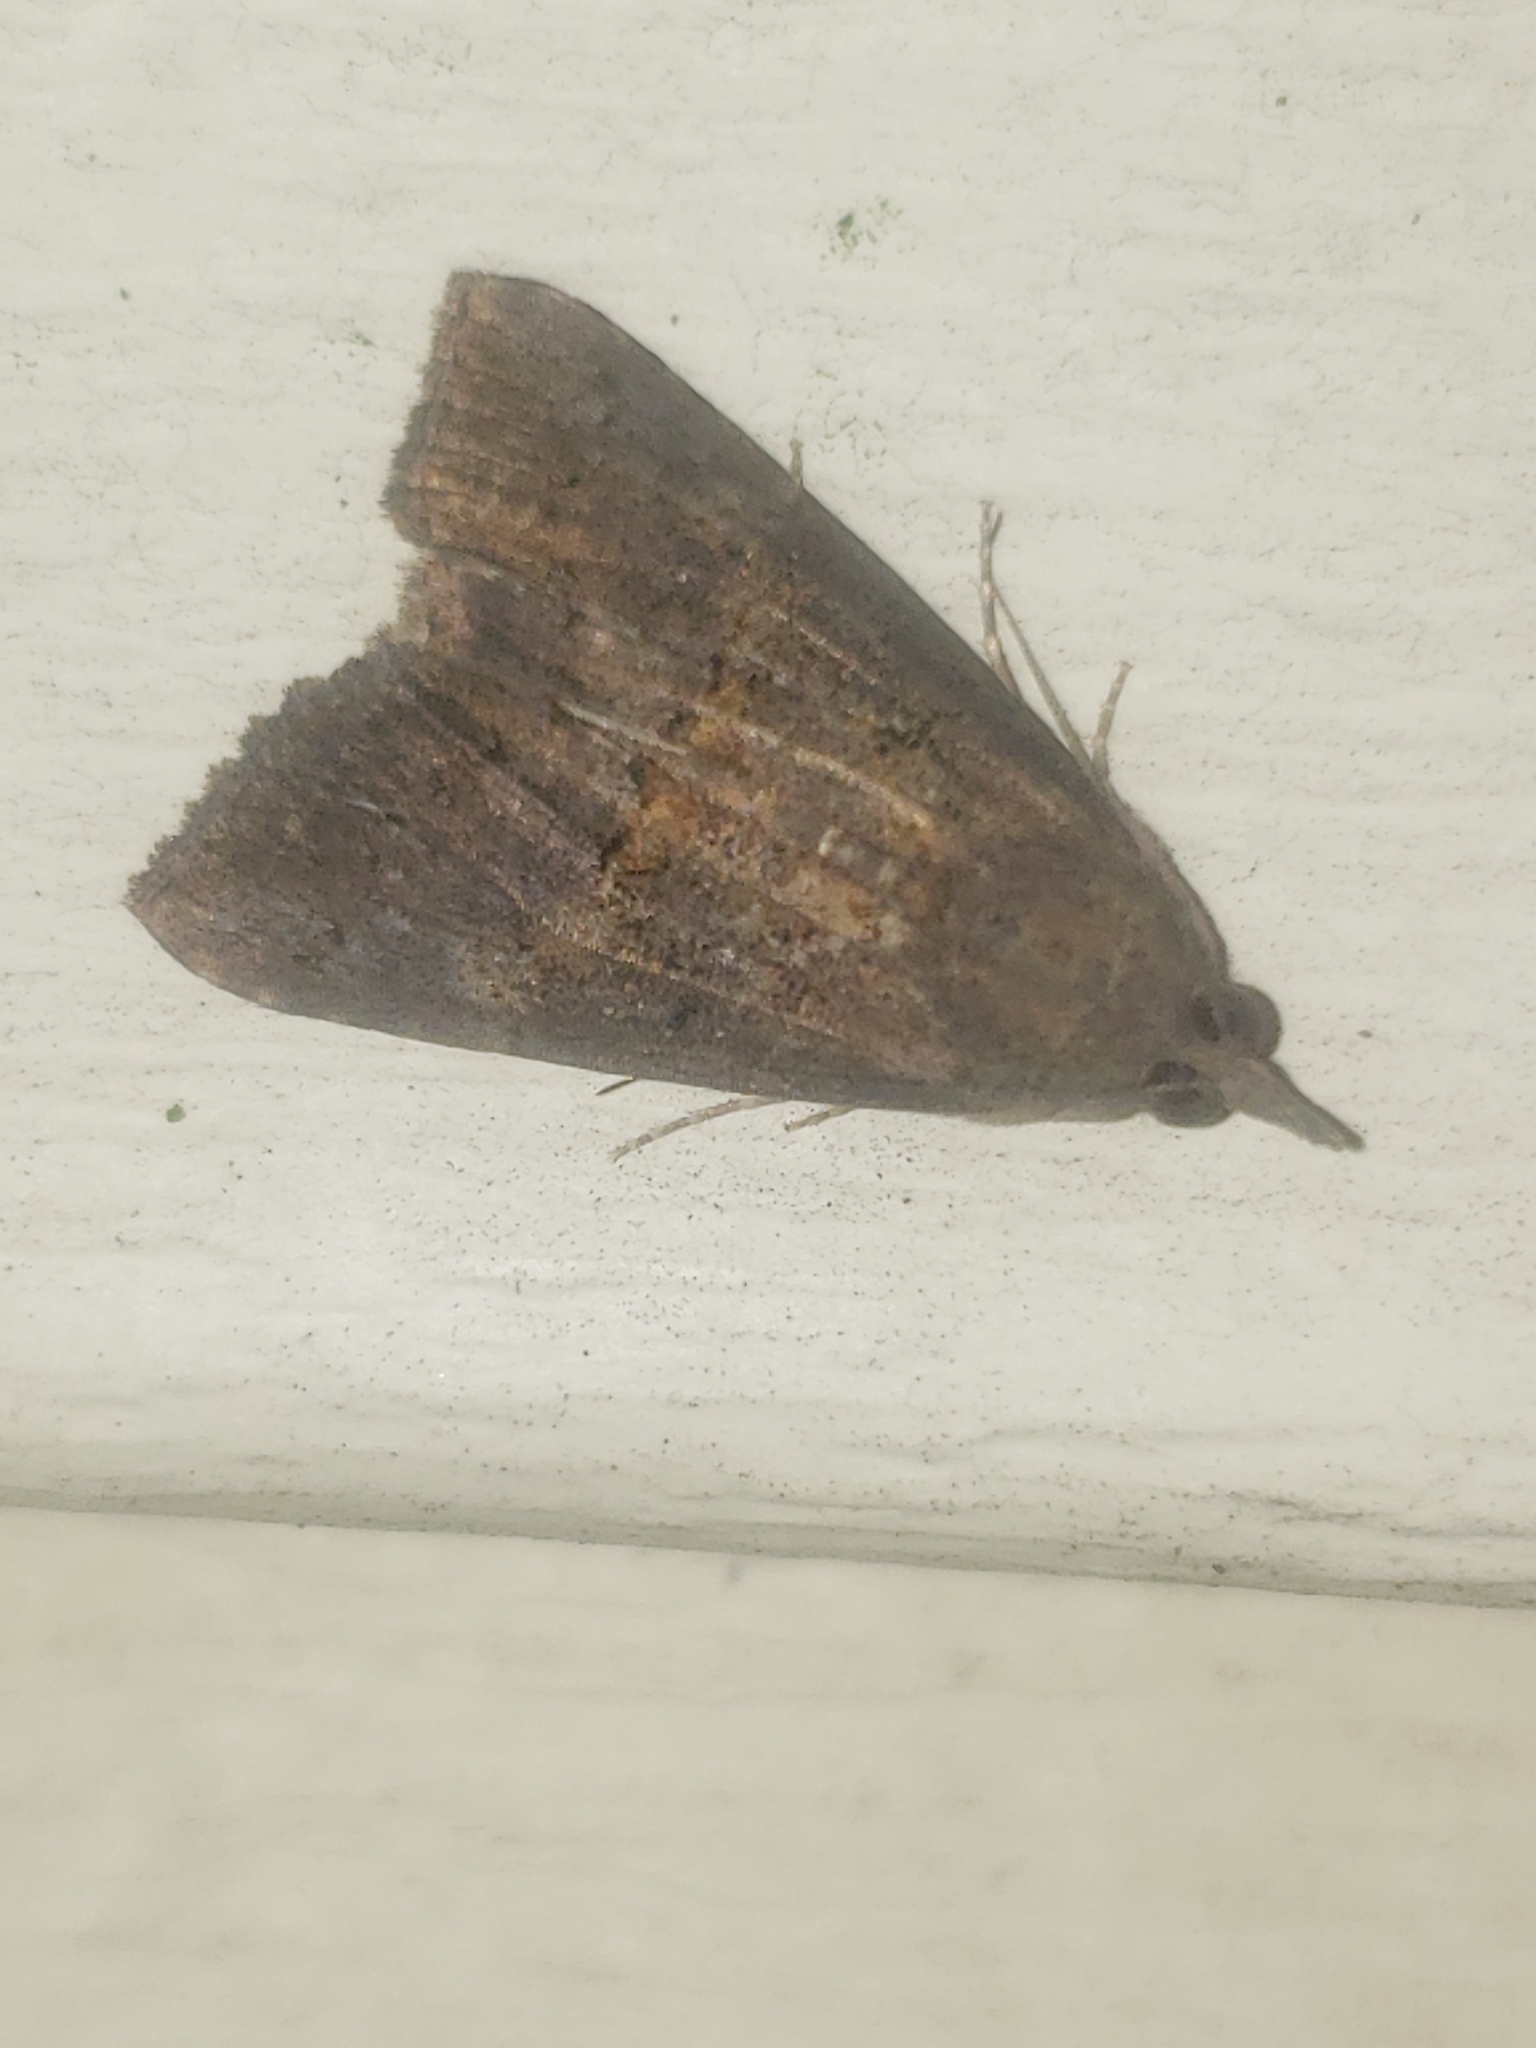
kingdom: Animalia
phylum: Arthropoda
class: Insecta
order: Lepidoptera
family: Erebidae
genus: Hypena
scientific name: Hypena scabra
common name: Green cloverworm
